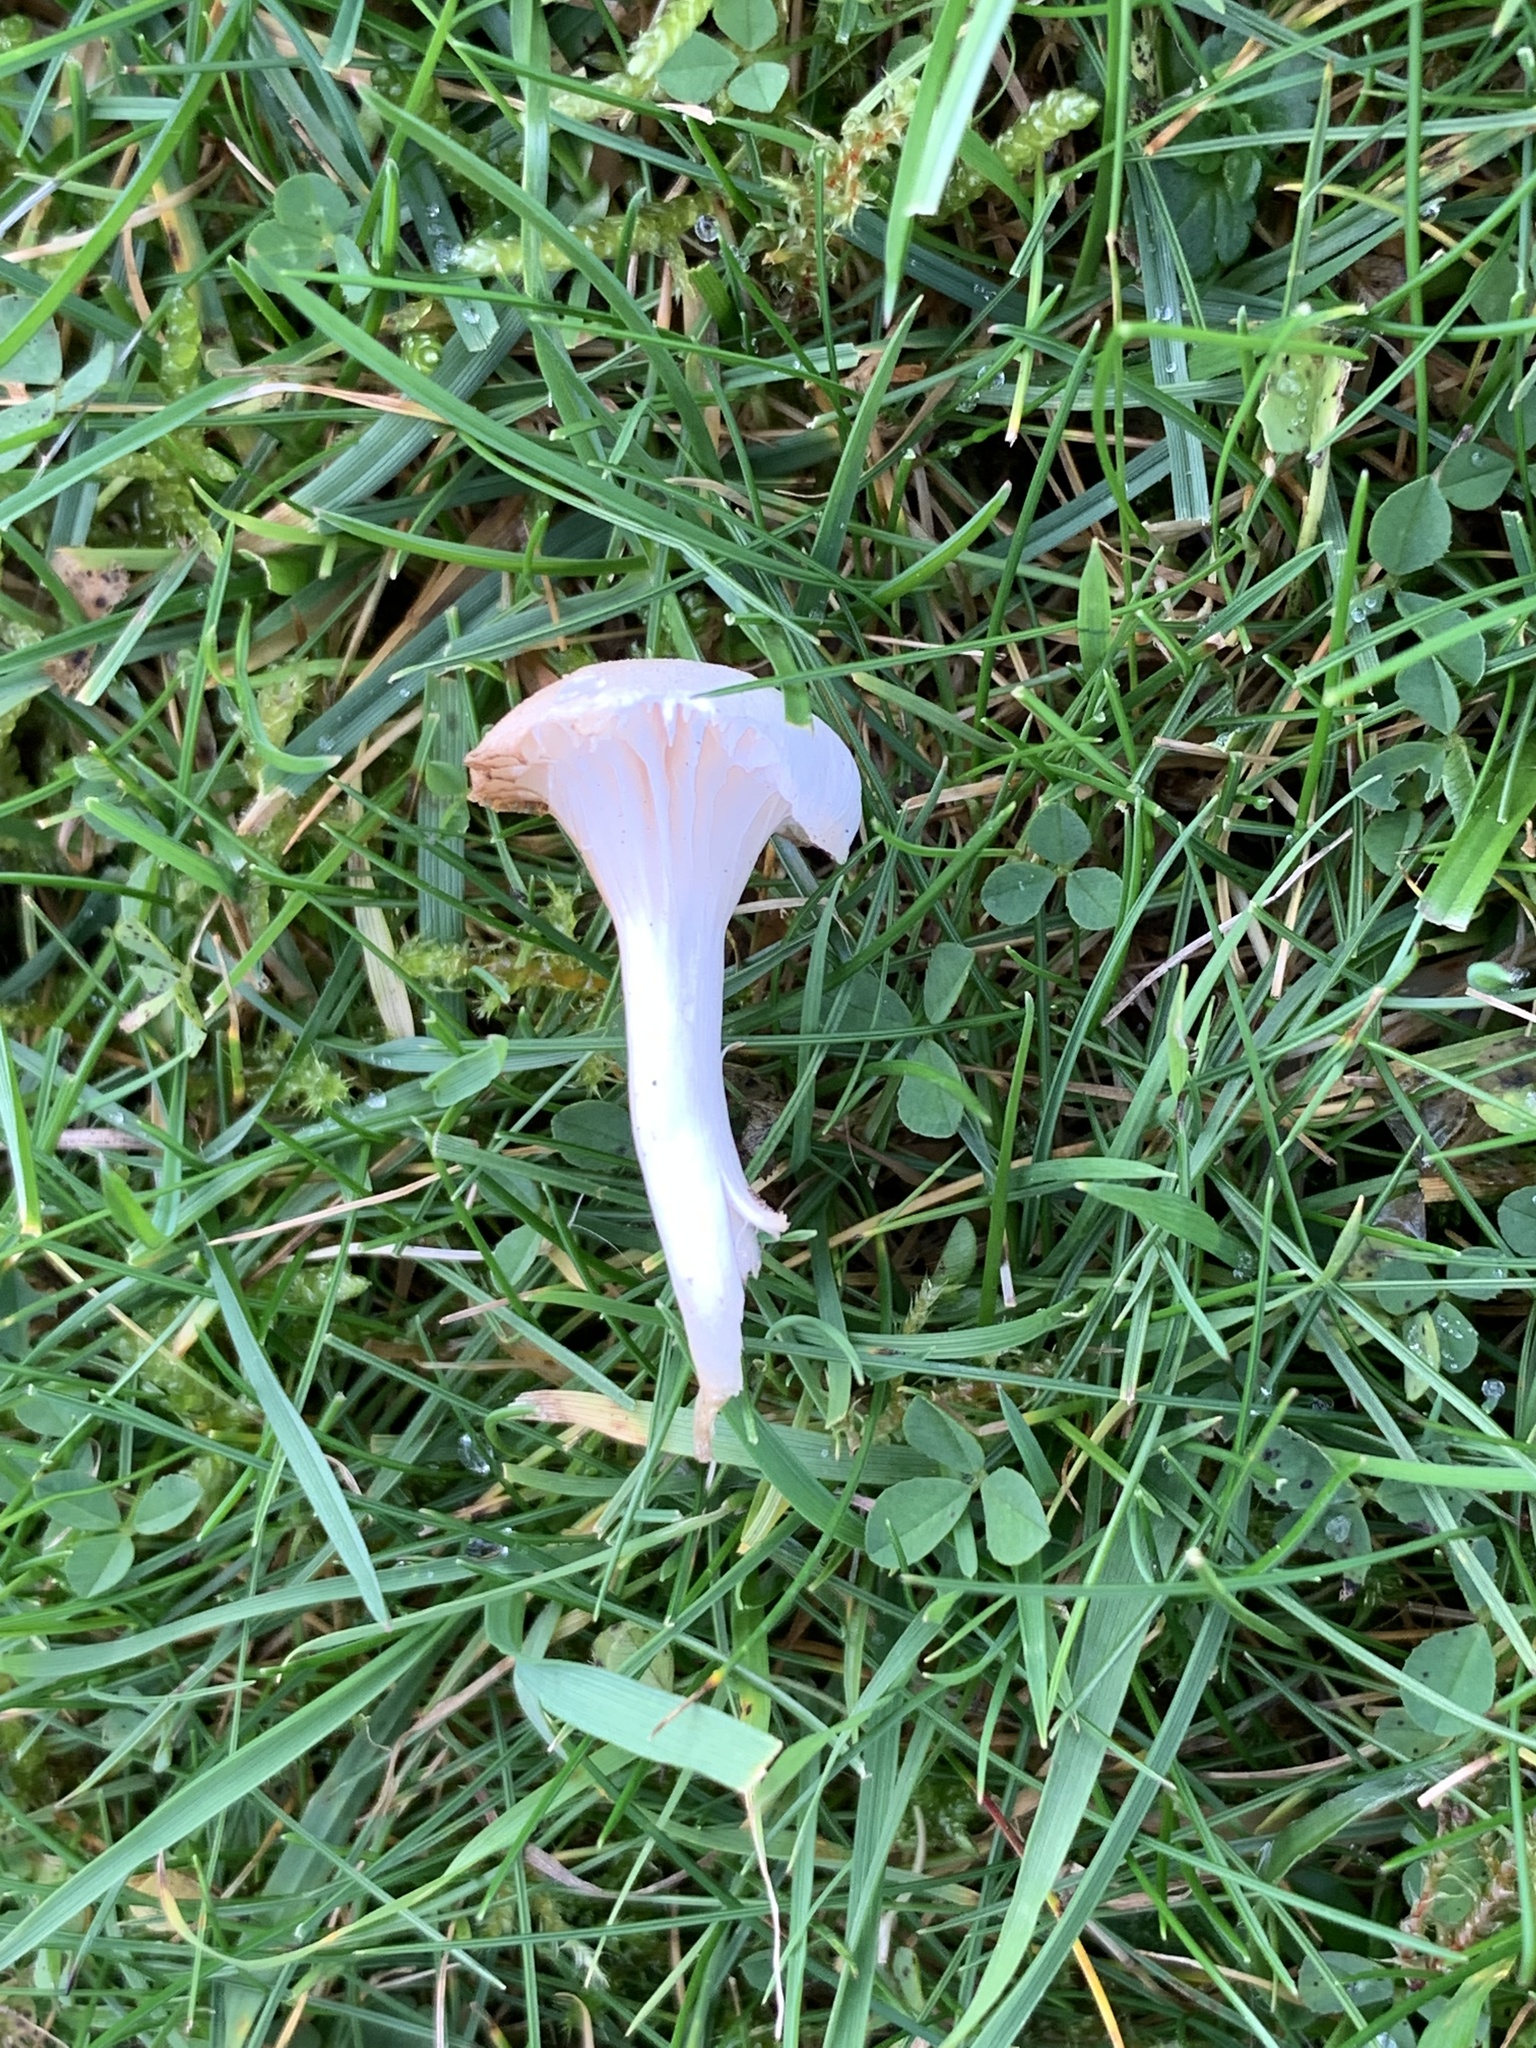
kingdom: Fungi
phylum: Basidiomycota
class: Agaricomycetes
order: Agaricales
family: Hygrophoraceae
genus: Cuphophyllus
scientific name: Cuphophyllus virgineus
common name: Snowy waxcap
